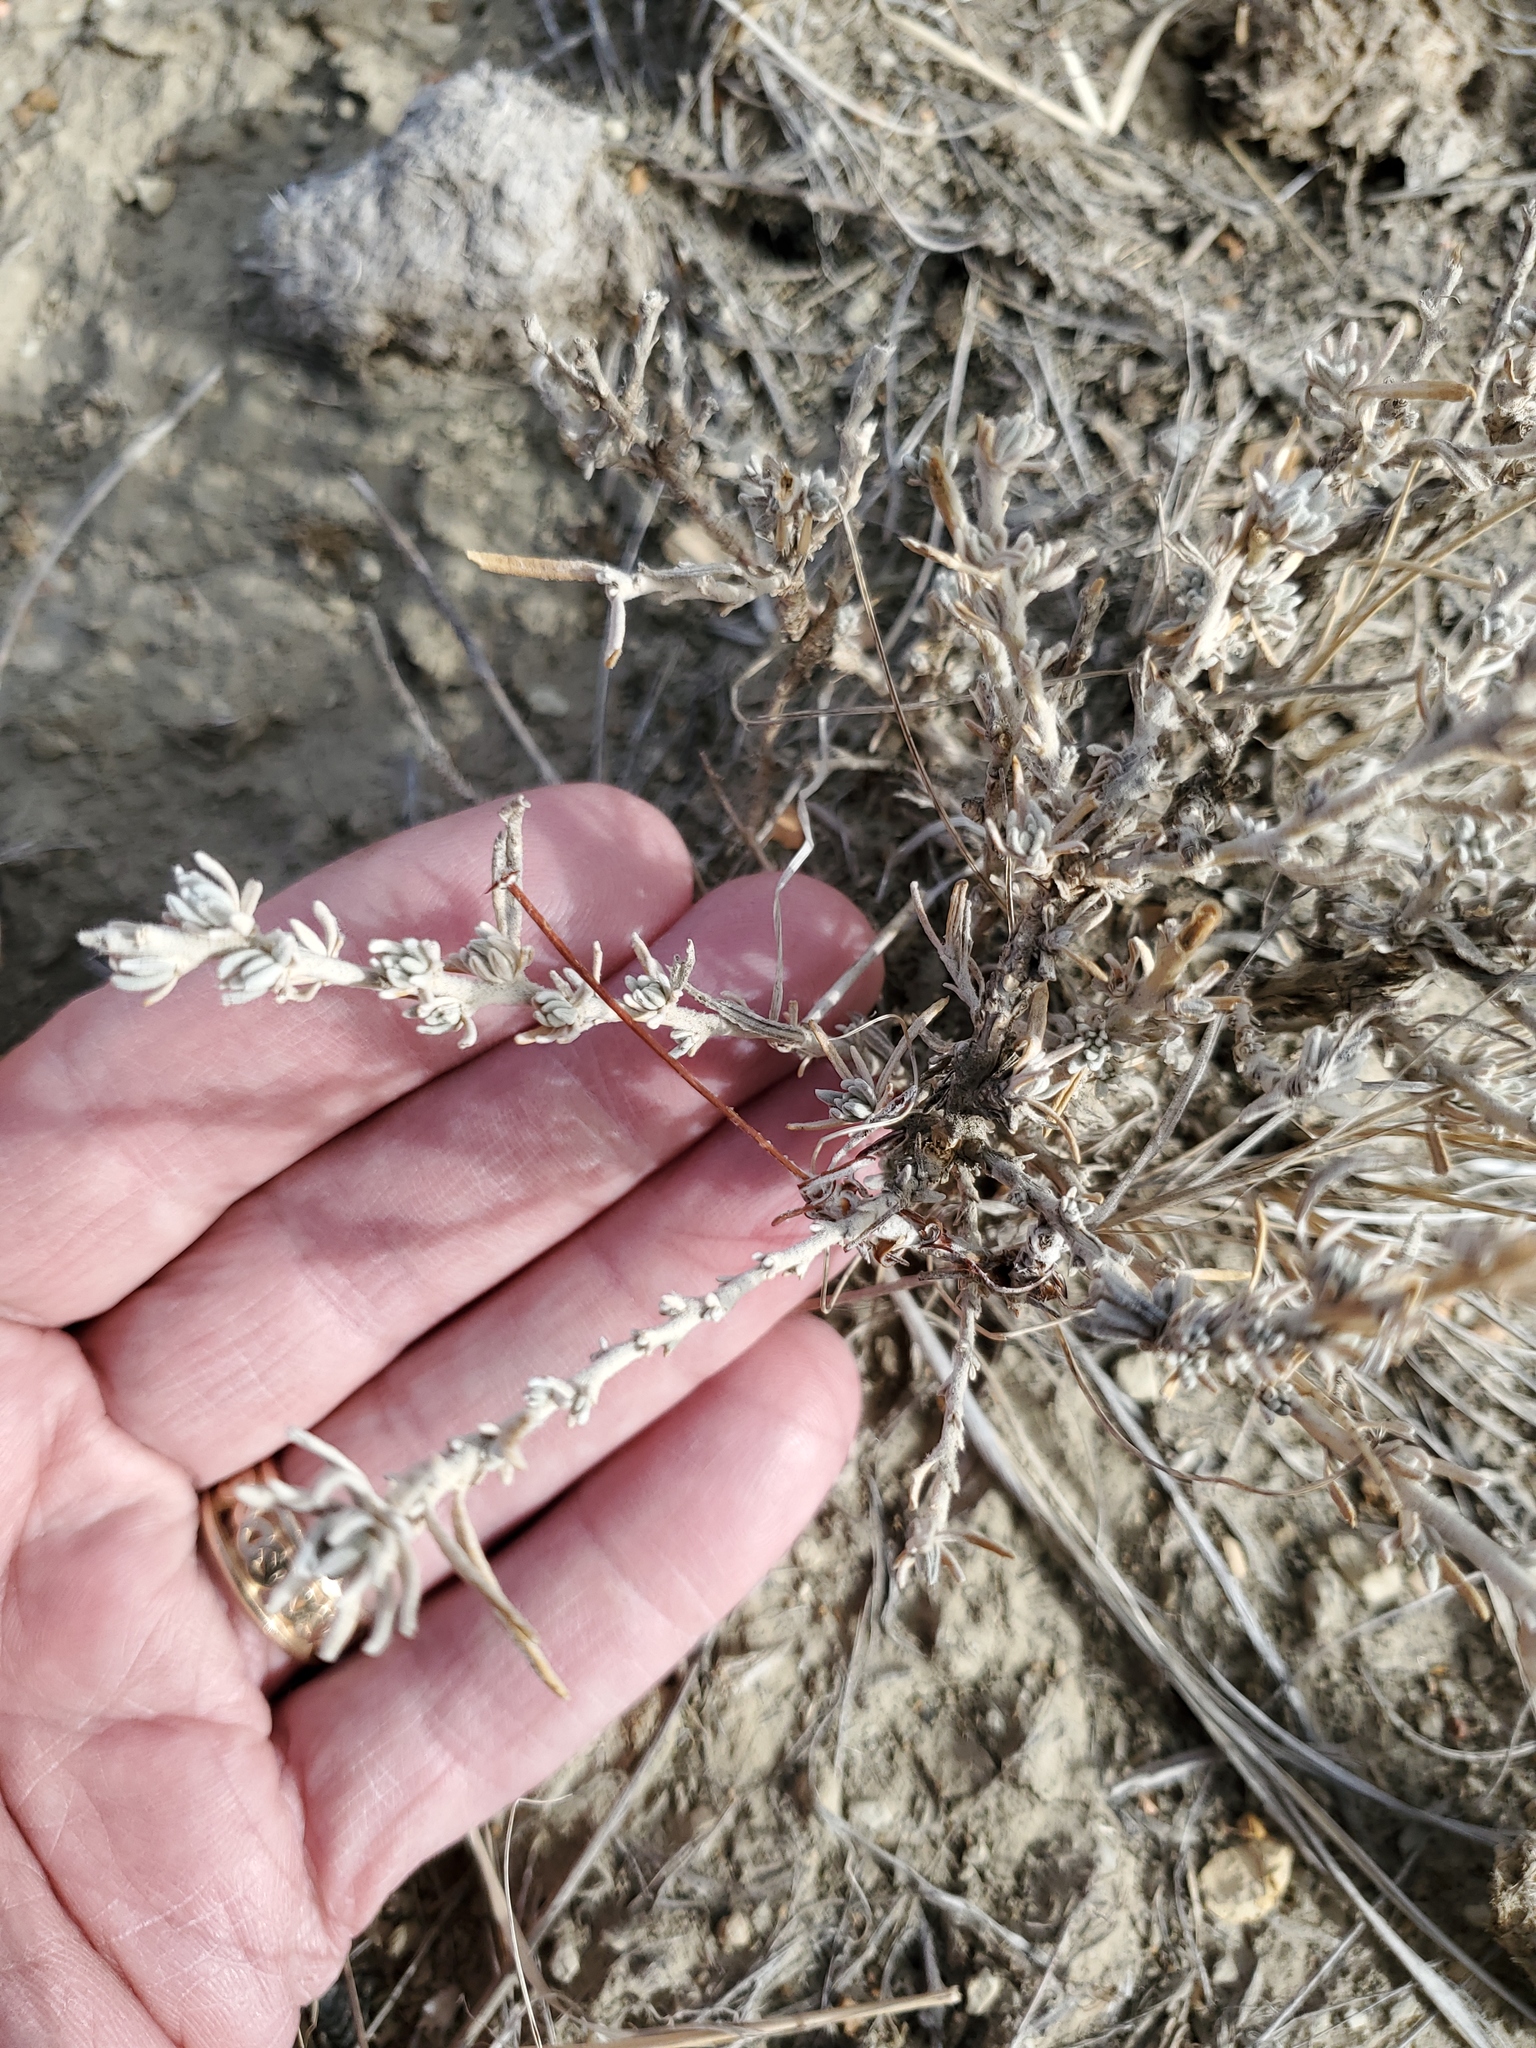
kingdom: Plantae
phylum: Tracheophyta
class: Magnoliopsida
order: Caryophyllales
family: Amaranthaceae
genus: Krascheninnikovia
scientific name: Krascheninnikovia lanata
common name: Winterfat
